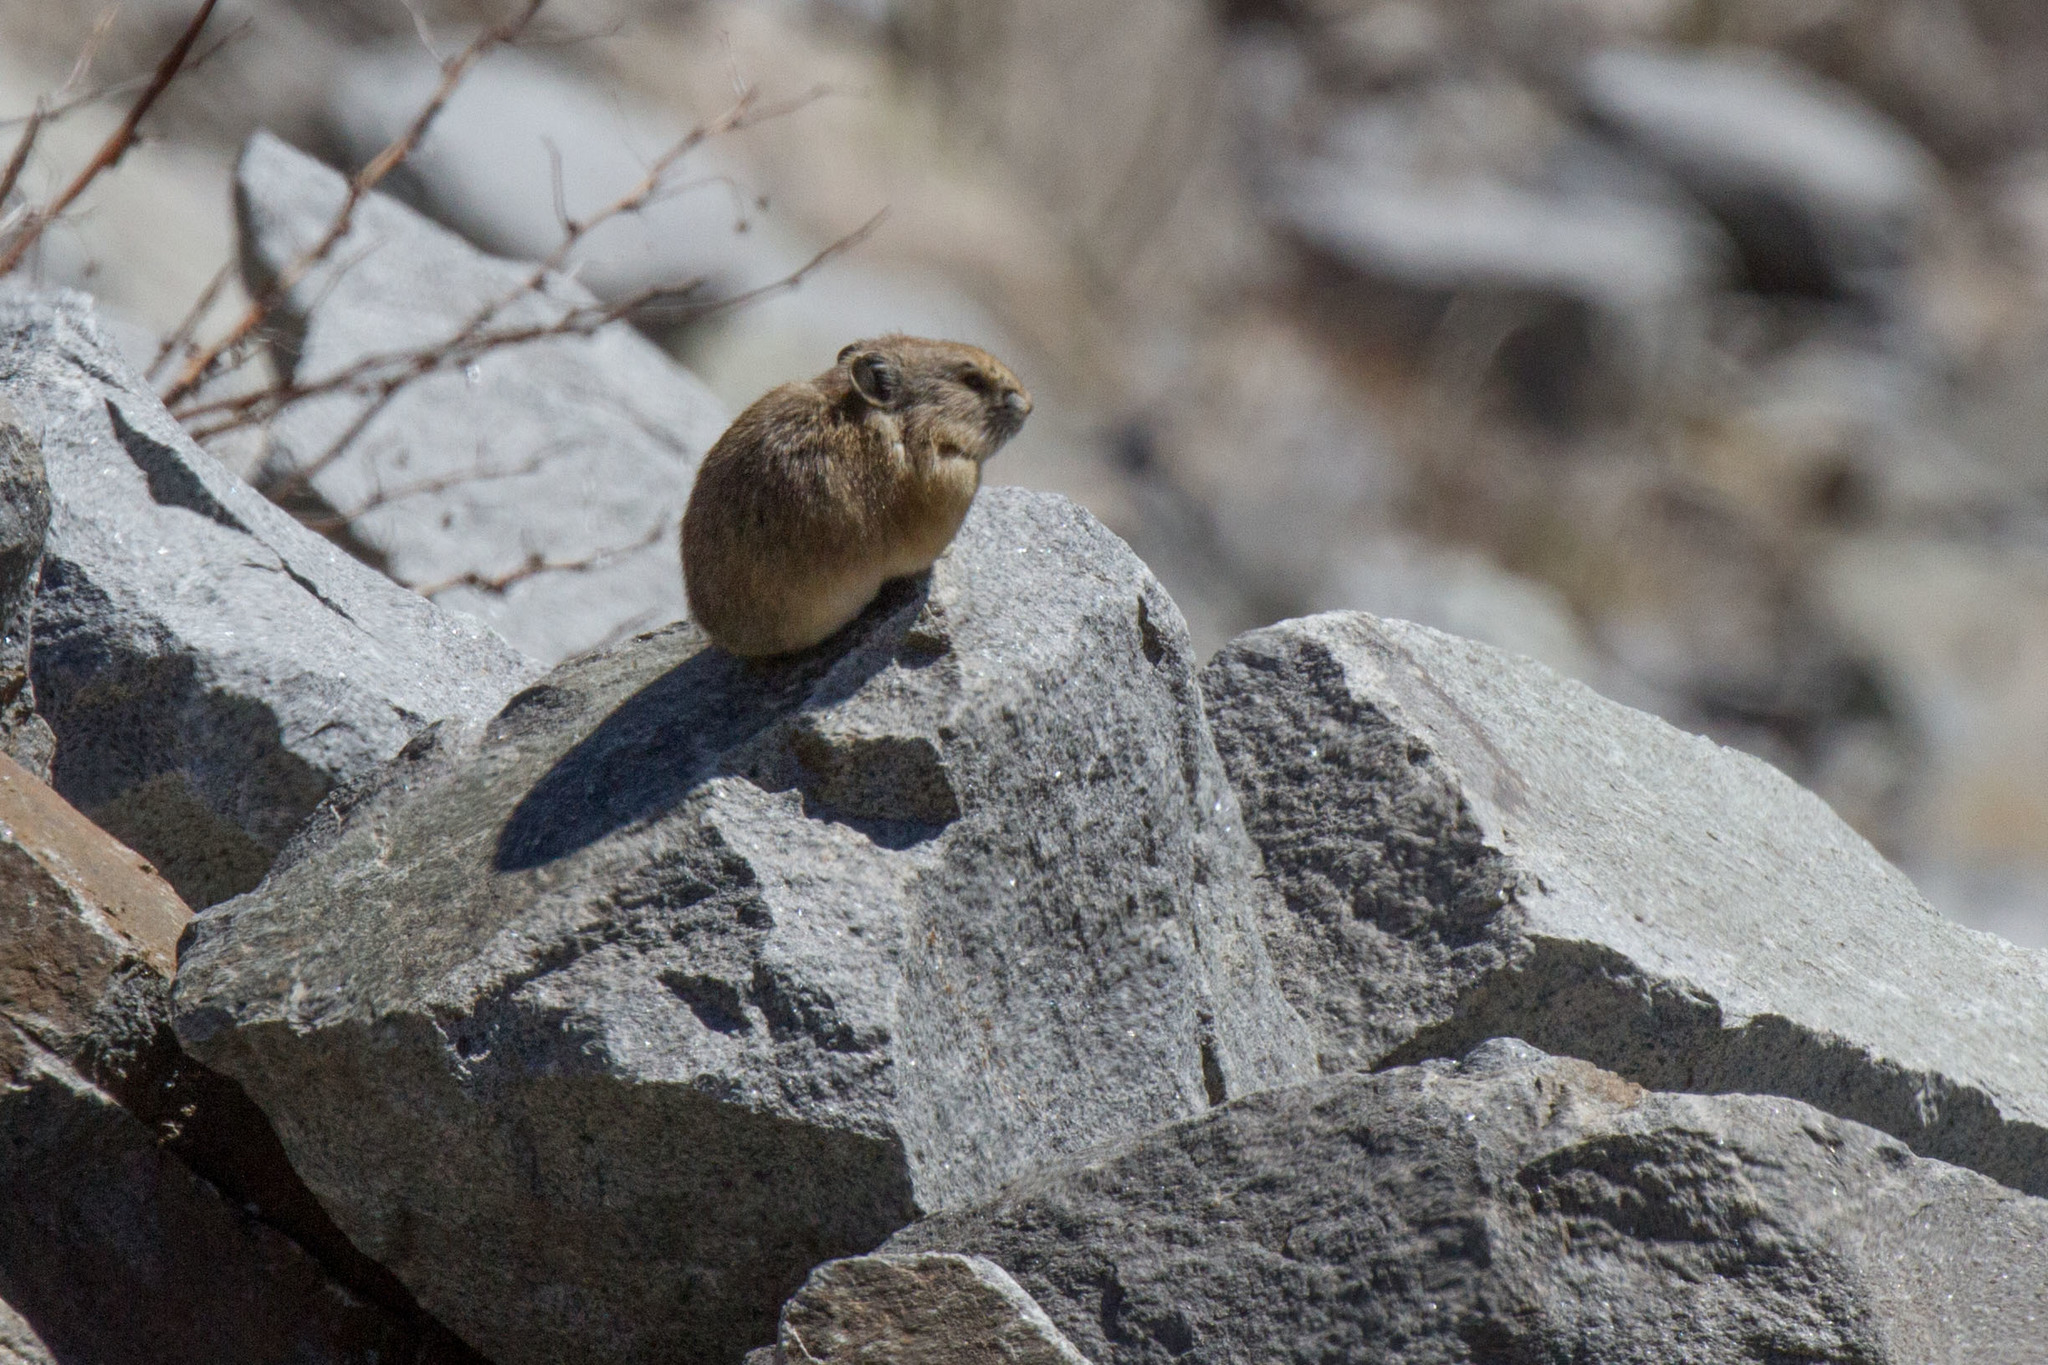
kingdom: Animalia
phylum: Chordata
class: Mammalia
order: Lagomorpha
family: Ochotonidae
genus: Ochotona
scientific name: Ochotona princeps
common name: American pika
